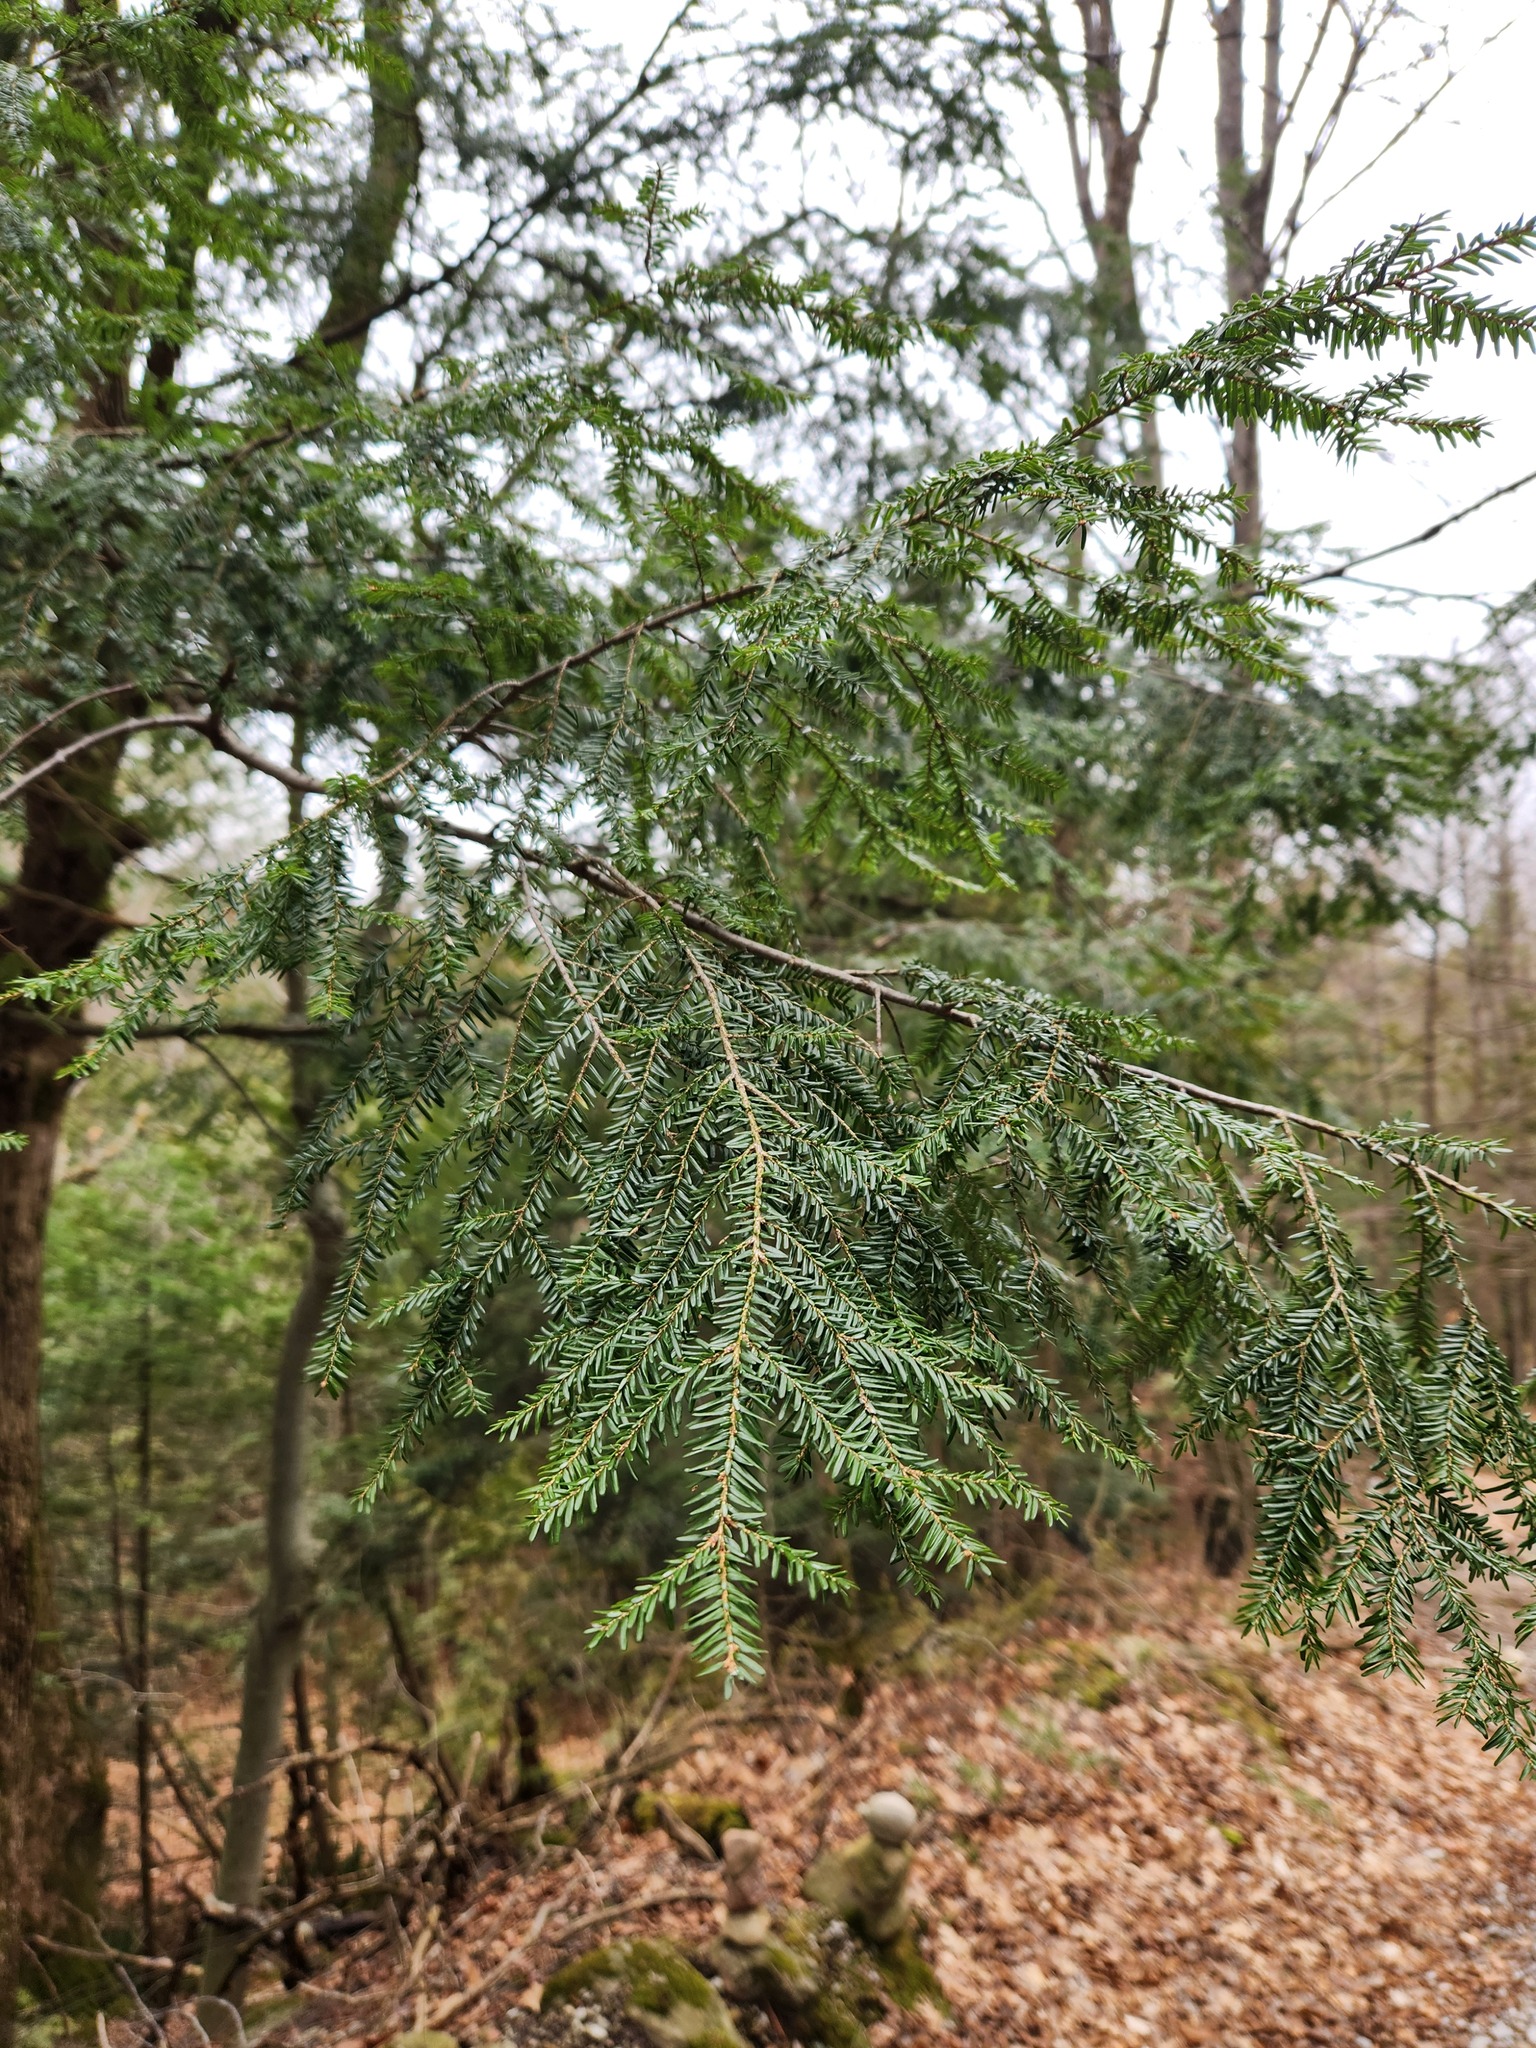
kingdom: Plantae
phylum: Tracheophyta
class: Pinopsida
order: Pinales
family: Pinaceae
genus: Tsuga
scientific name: Tsuga canadensis
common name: Eastern hemlock
